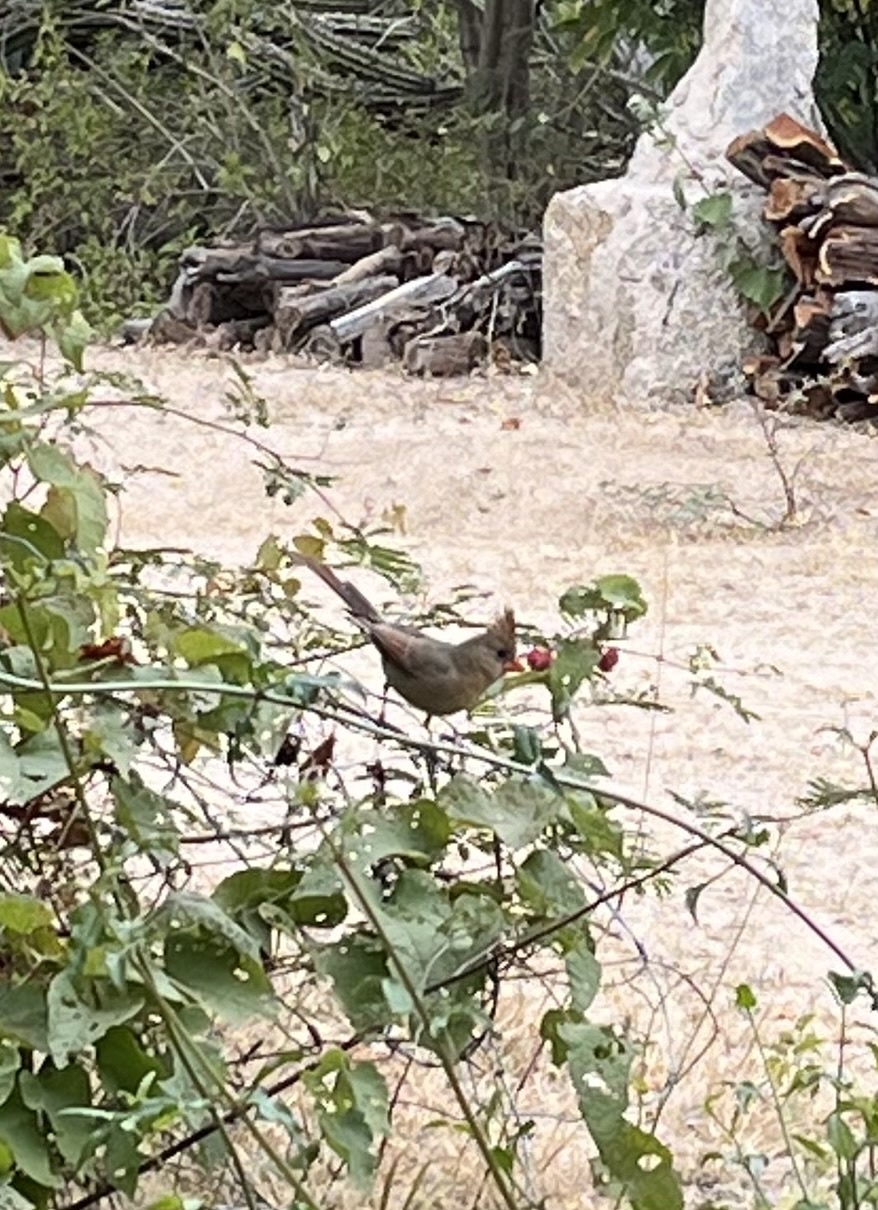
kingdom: Animalia
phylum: Chordata
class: Aves
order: Passeriformes
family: Cardinalidae
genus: Cardinalis
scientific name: Cardinalis cardinalis
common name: Northern cardinal
